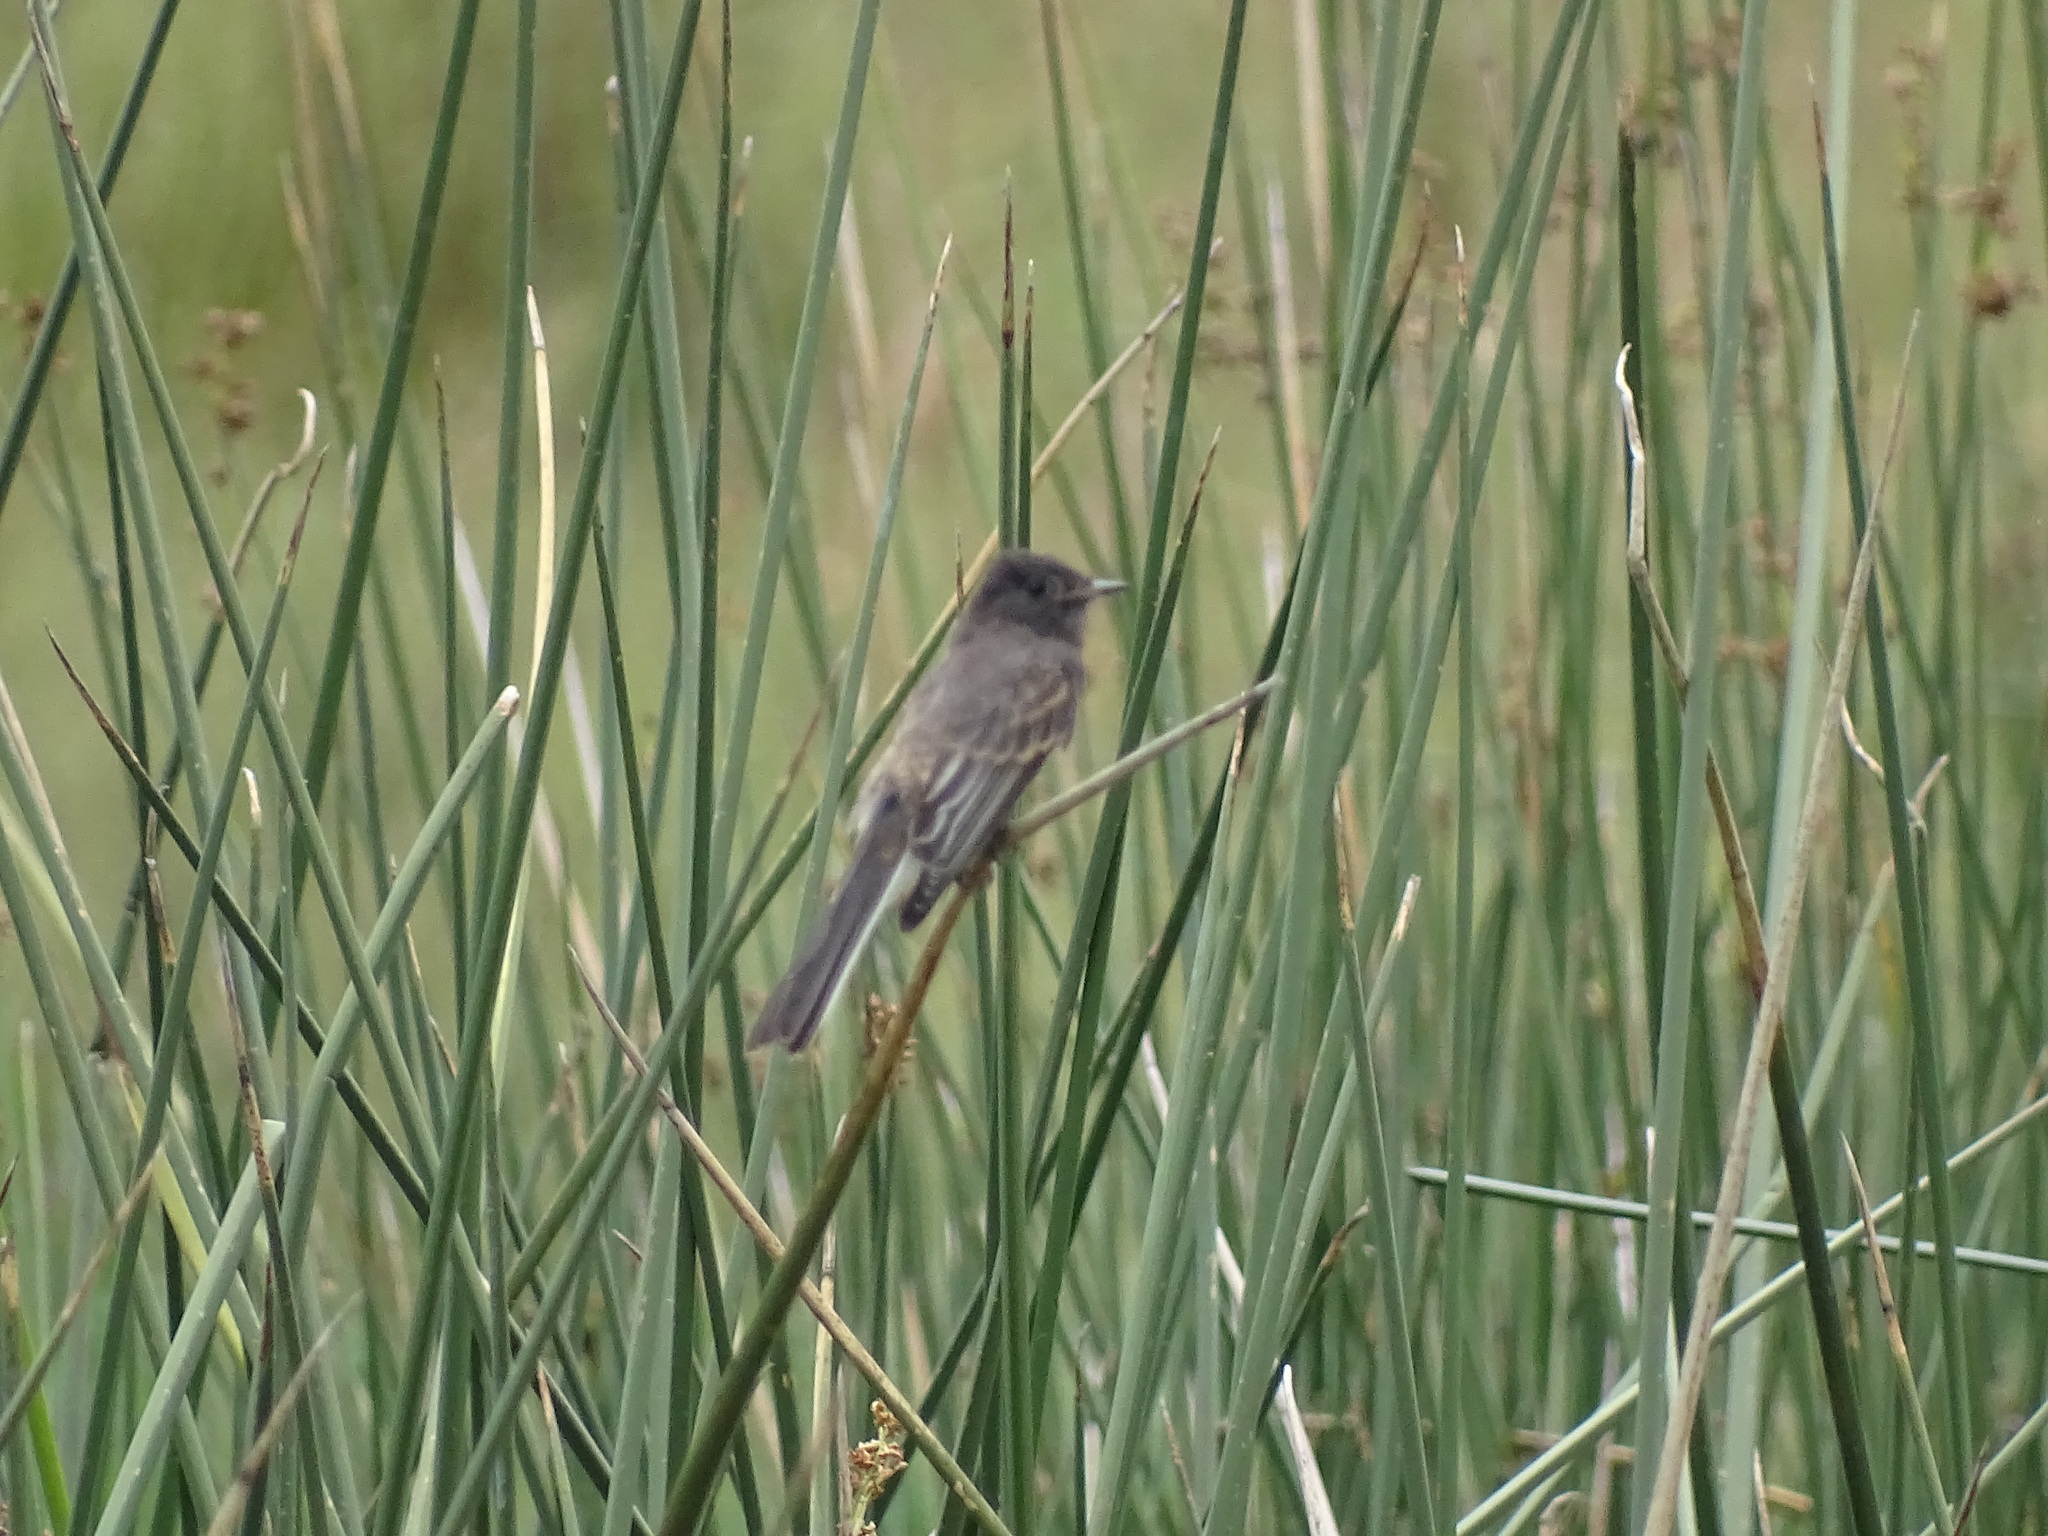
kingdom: Animalia
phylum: Chordata
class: Aves
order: Passeriformes
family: Tyrannidae
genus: Sayornis
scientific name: Sayornis nigricans
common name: Black phoebe
